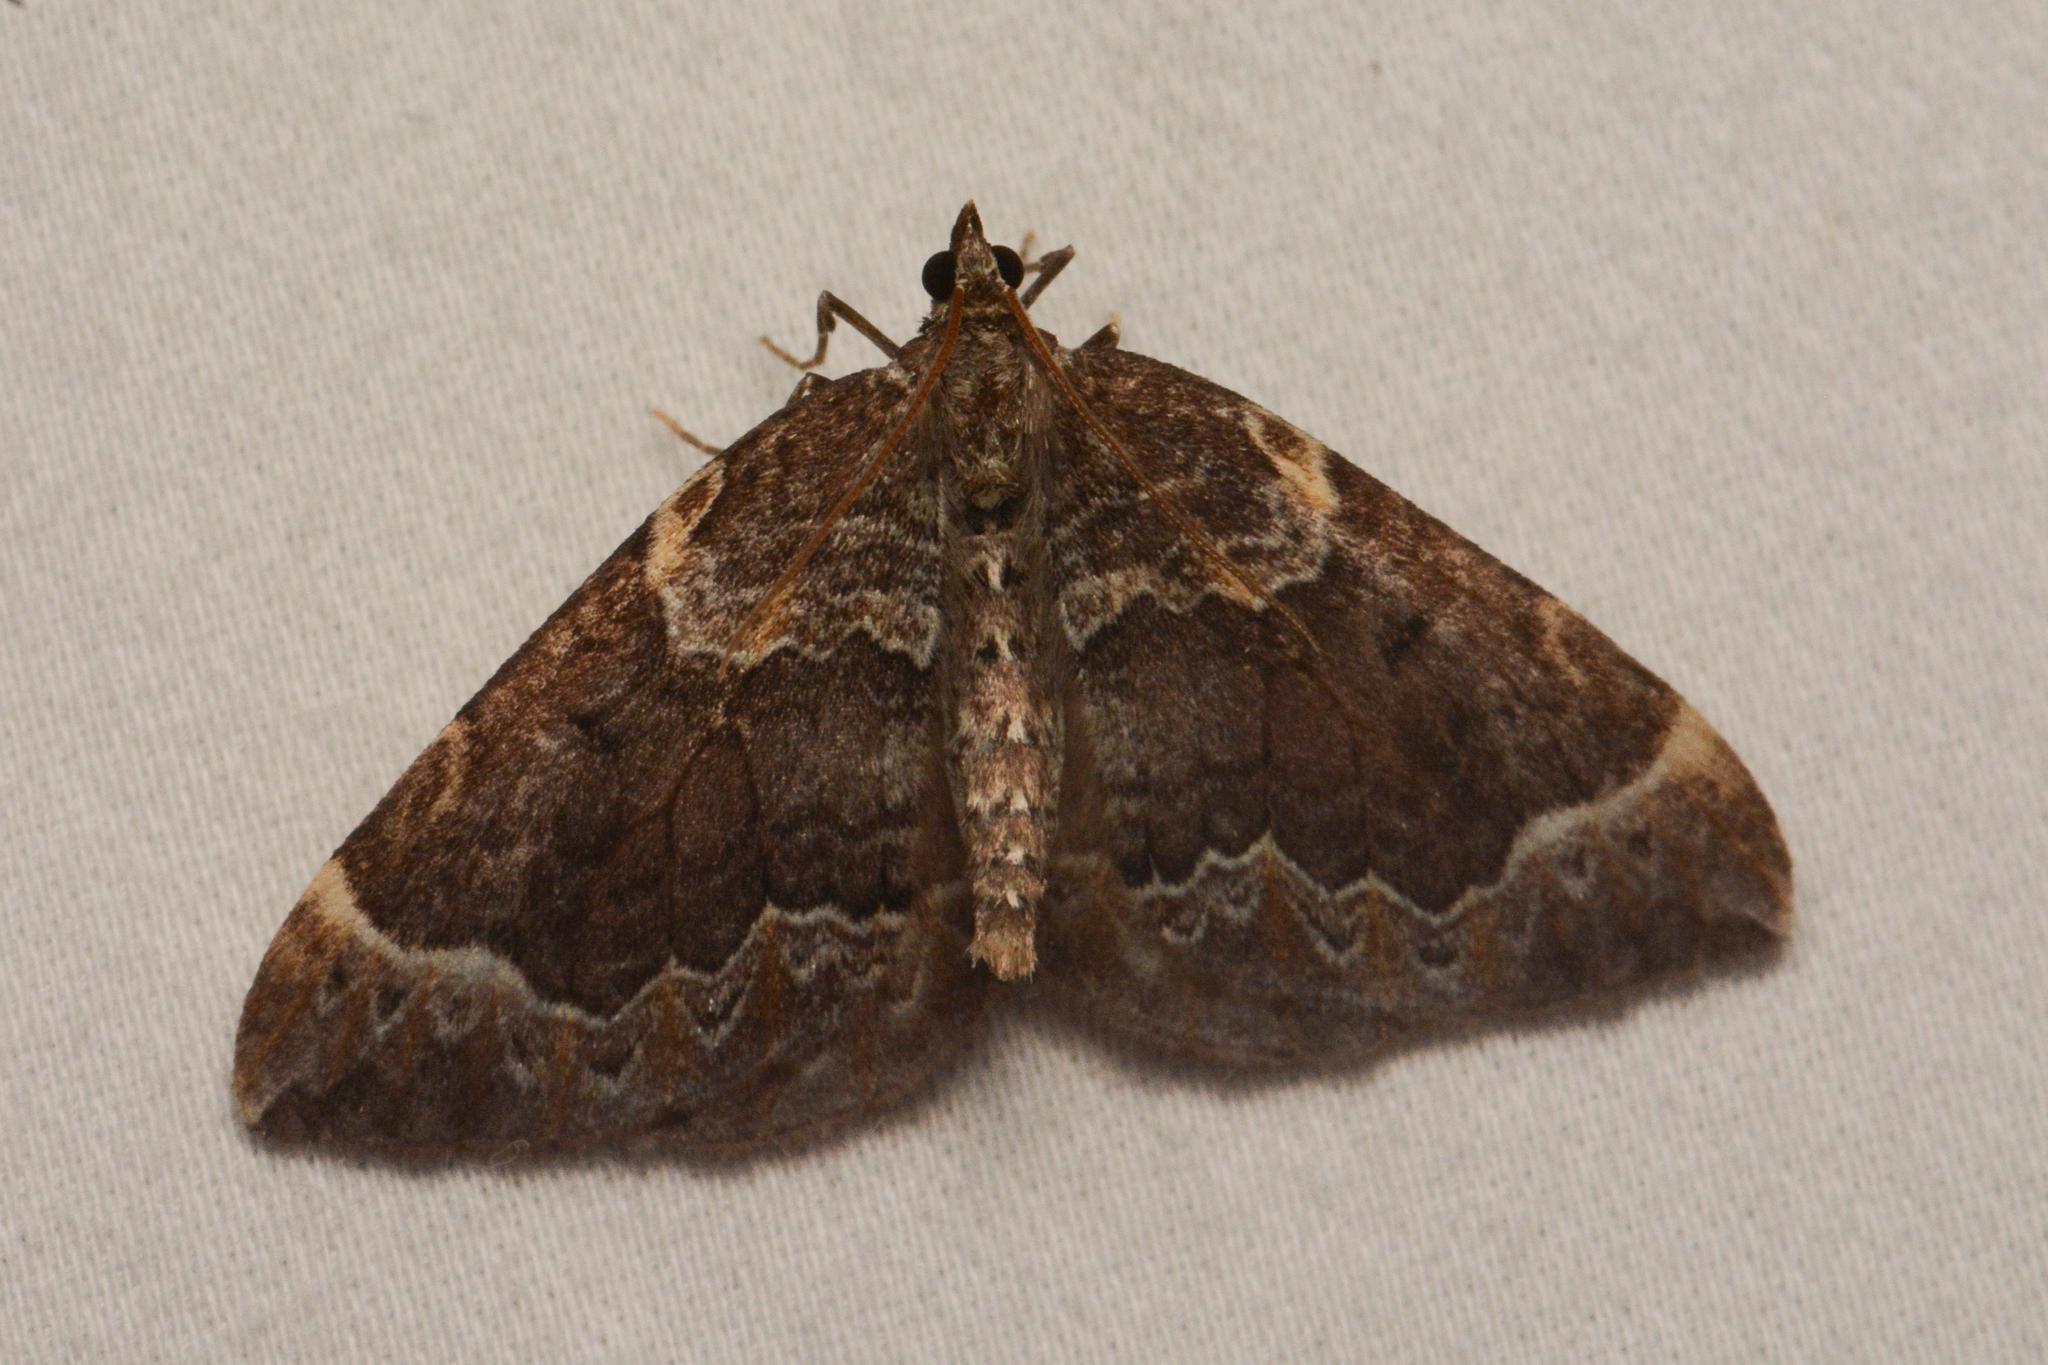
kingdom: Animalia
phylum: Arthropoda
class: Insecta
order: Lepidoptera
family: Geometridae
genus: Eulithis
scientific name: Eulithis destinata
